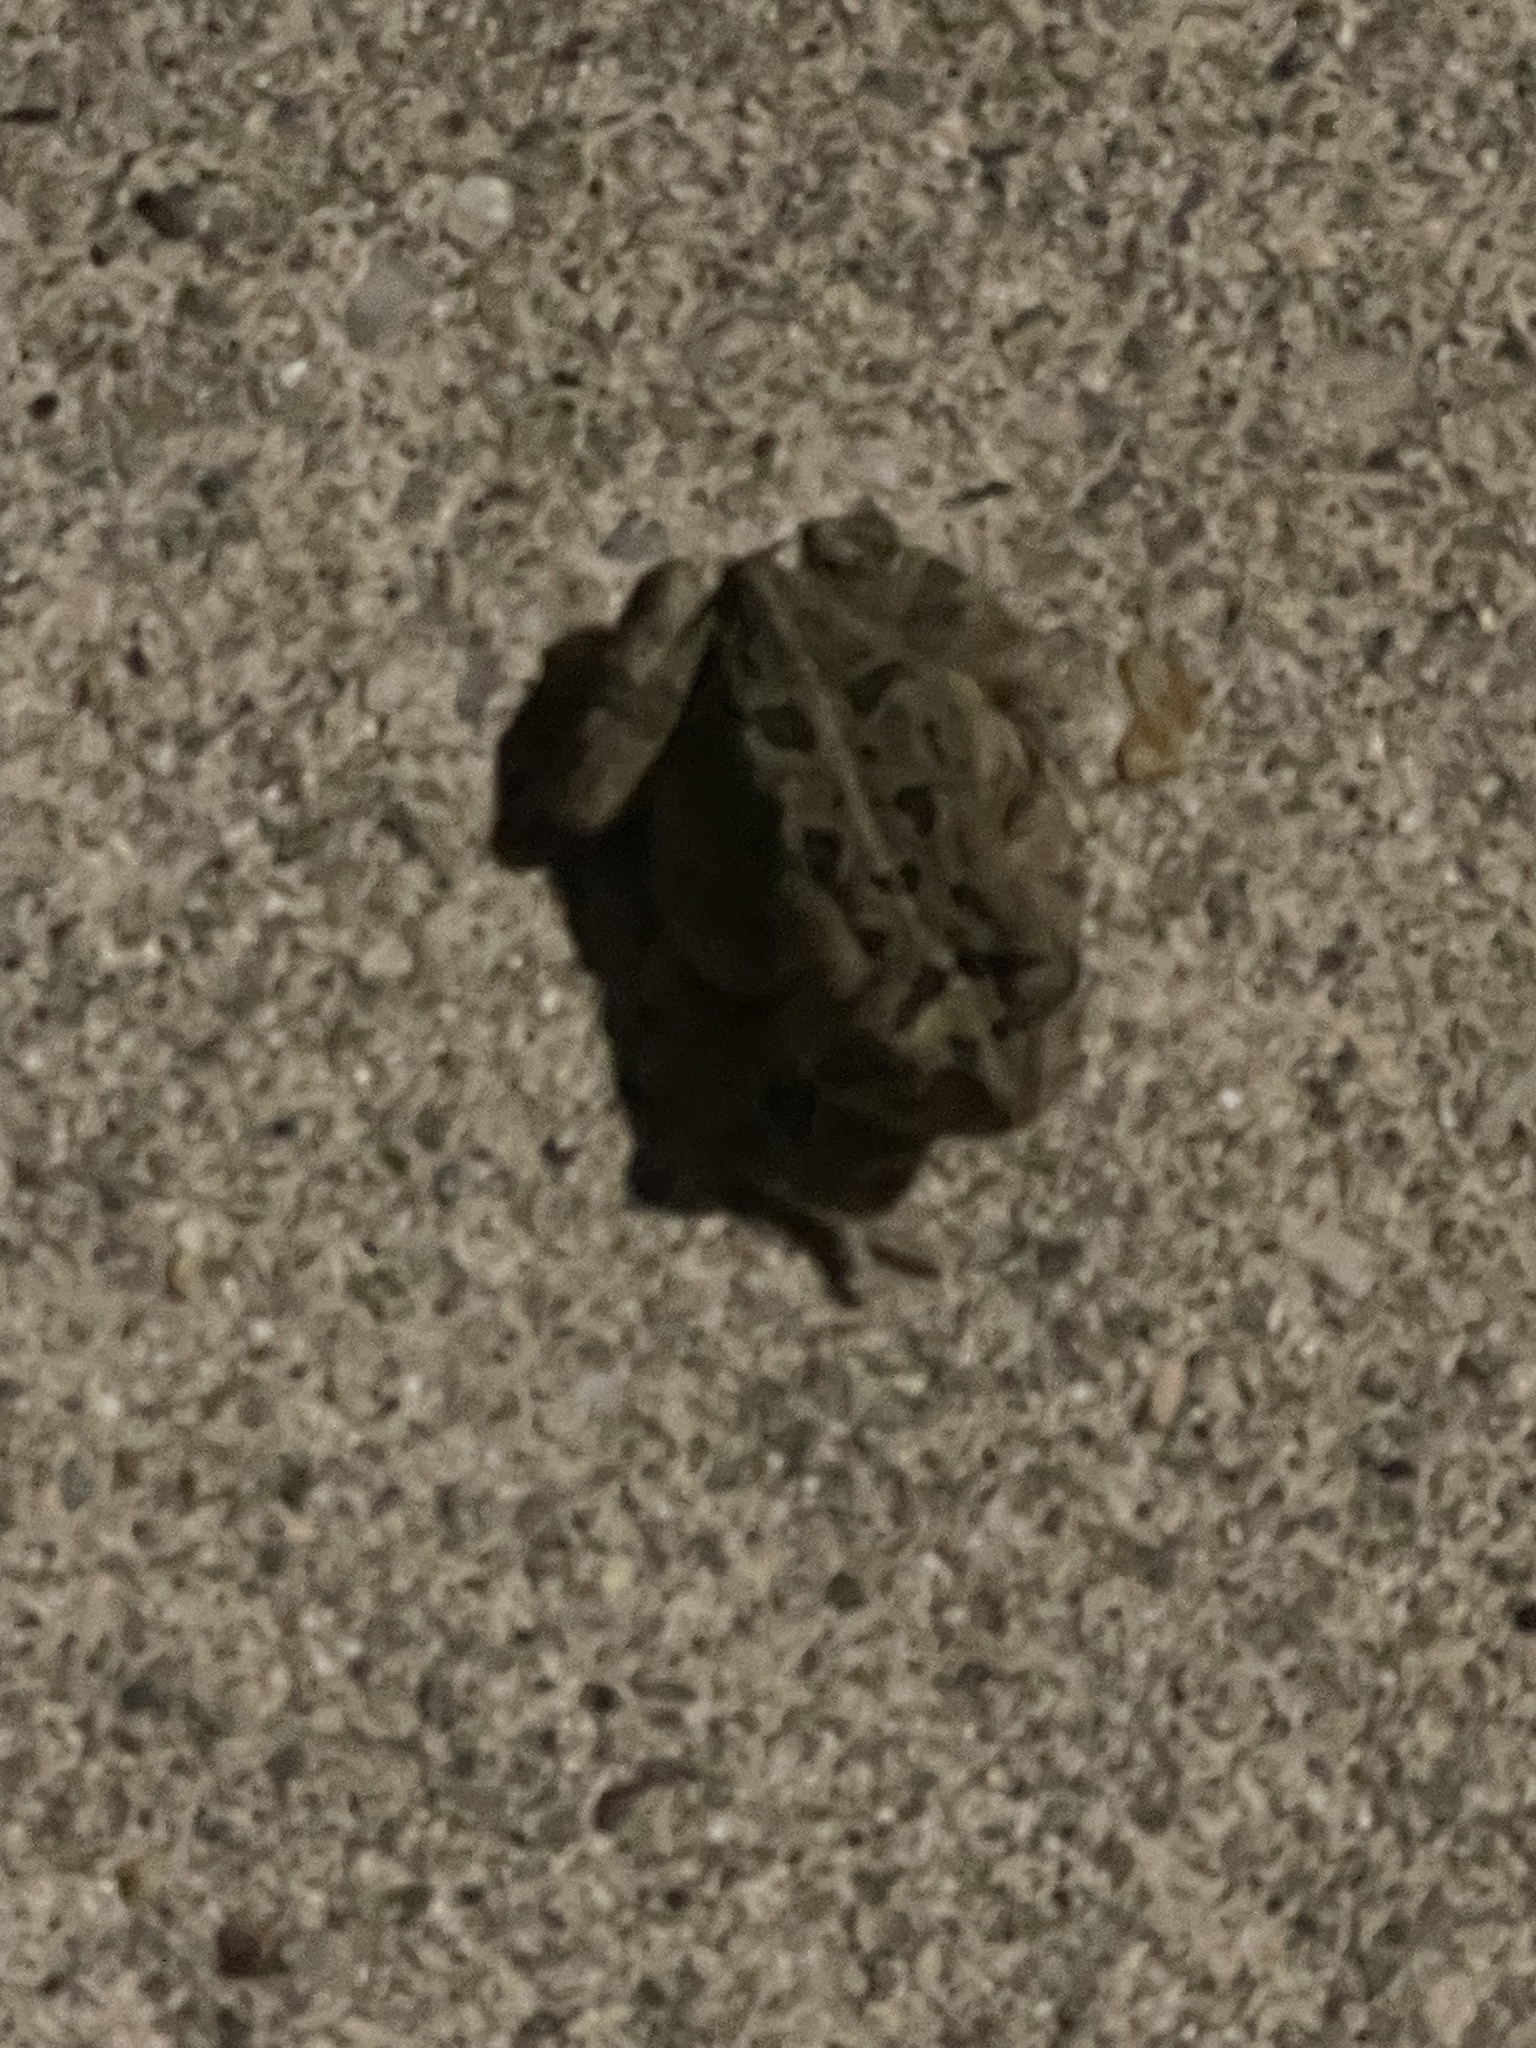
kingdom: Animalia
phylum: Chordata
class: Amphibia
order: Anura
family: Bufonidae
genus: Anaxyrus
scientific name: Anaxyrus fowleri
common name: Fowler's toad
